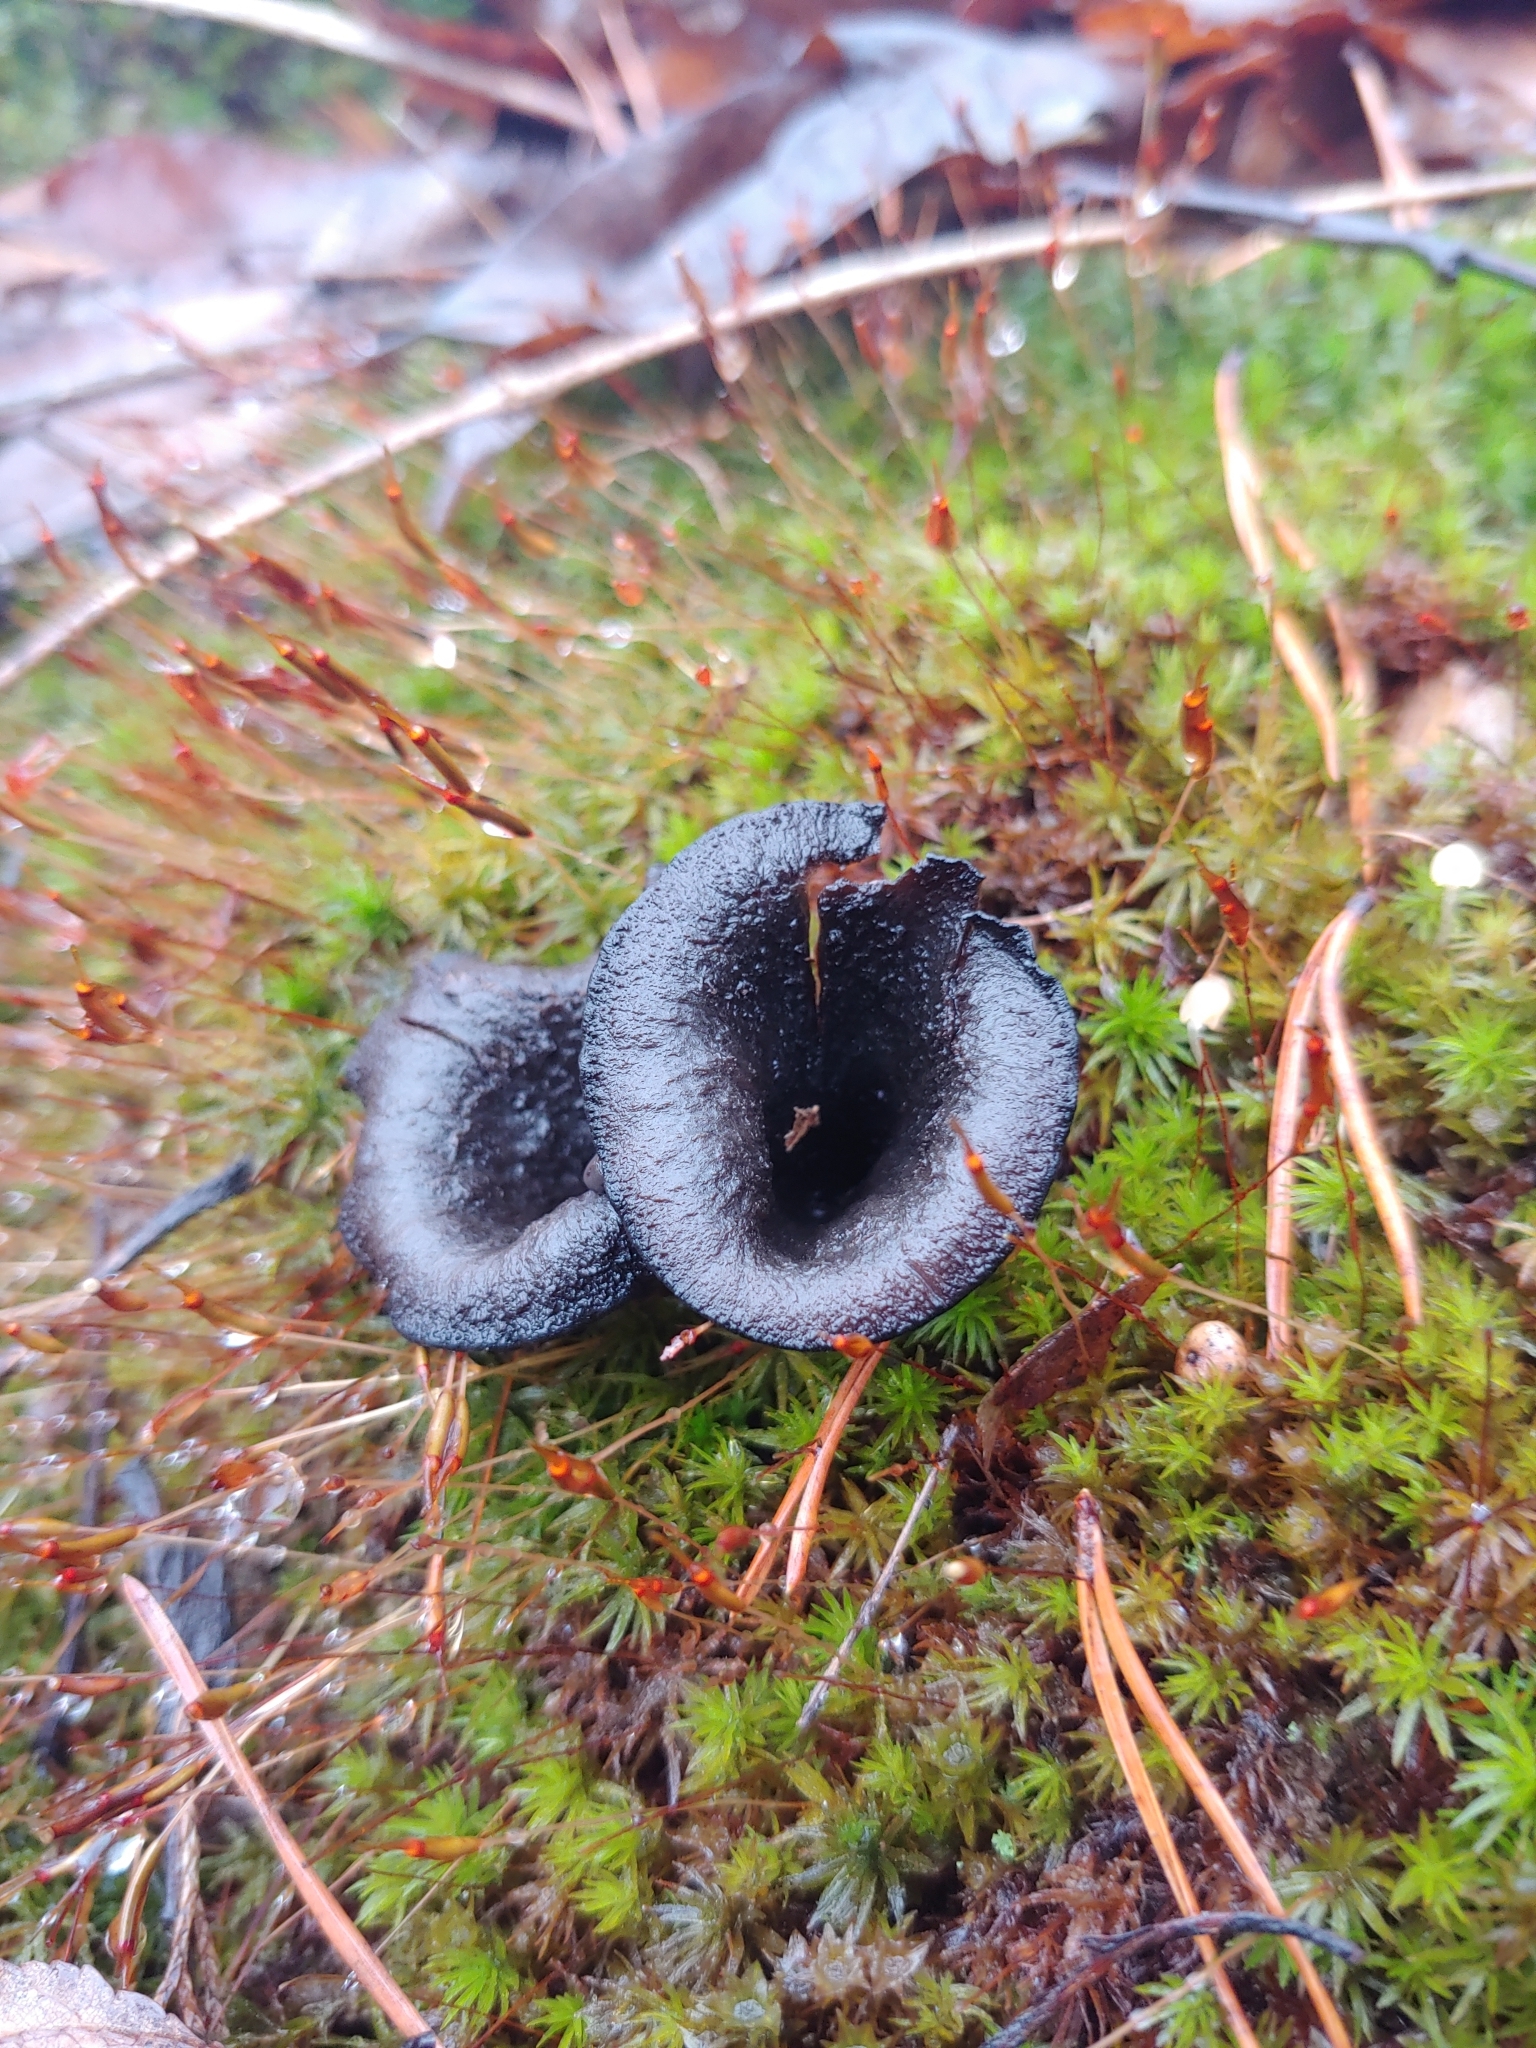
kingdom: Fungi
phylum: Basidiomycota
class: Agaricomycetes
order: Cantharellales
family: Hydnaceae
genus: Craterellus
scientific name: Craterellus cornucopioides
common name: Horn of plenty
